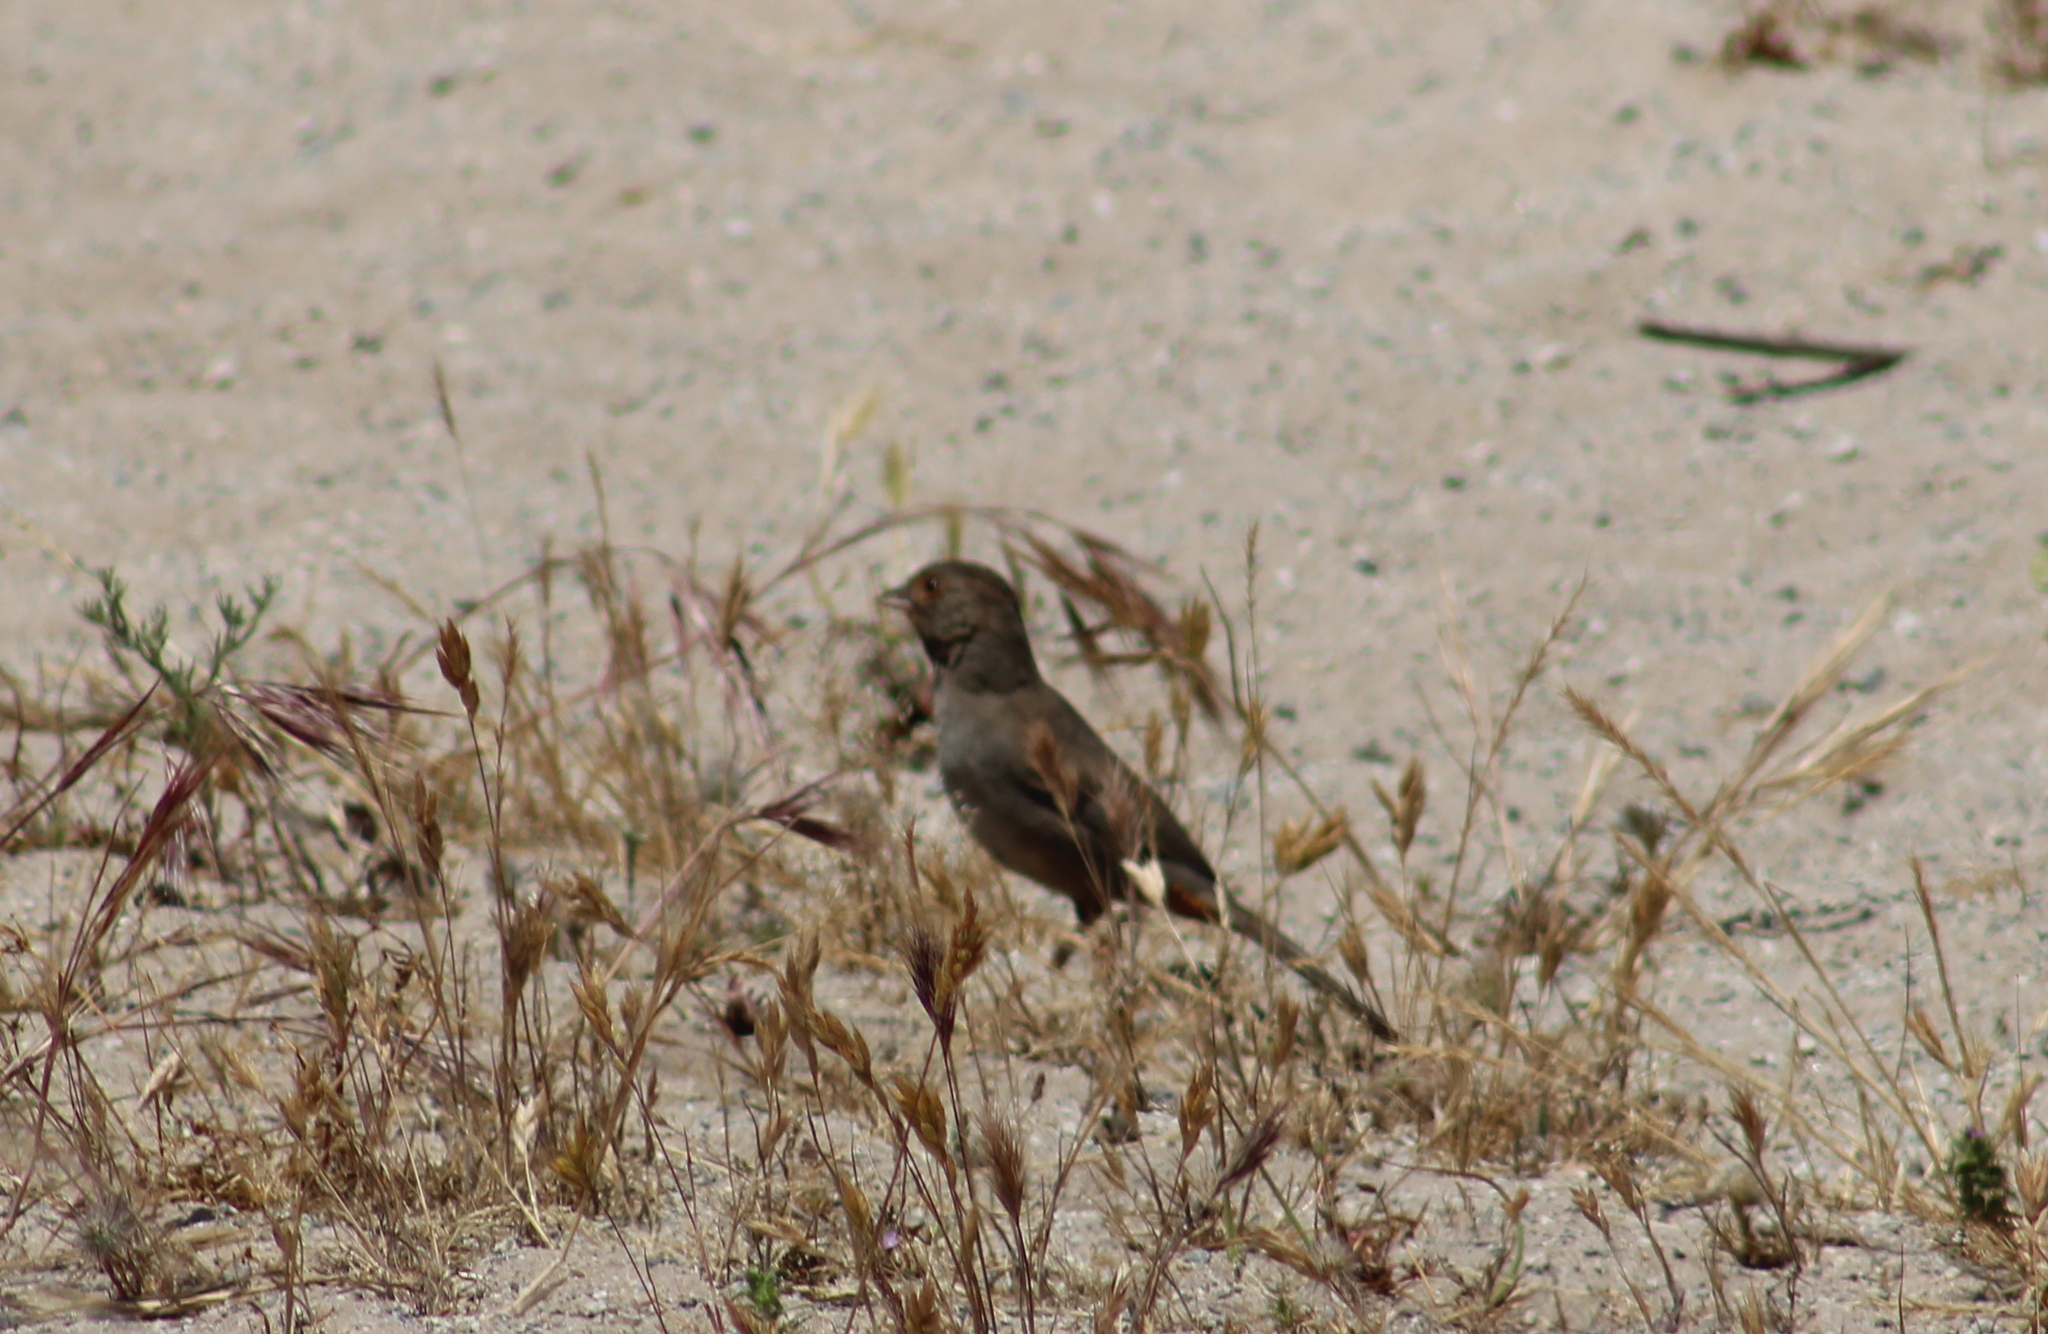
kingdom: Animalia
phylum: Chordata
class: Aves
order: Passeriformes
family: Passerellidae
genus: Melozone
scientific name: Melozone crissalis
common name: California towhee
